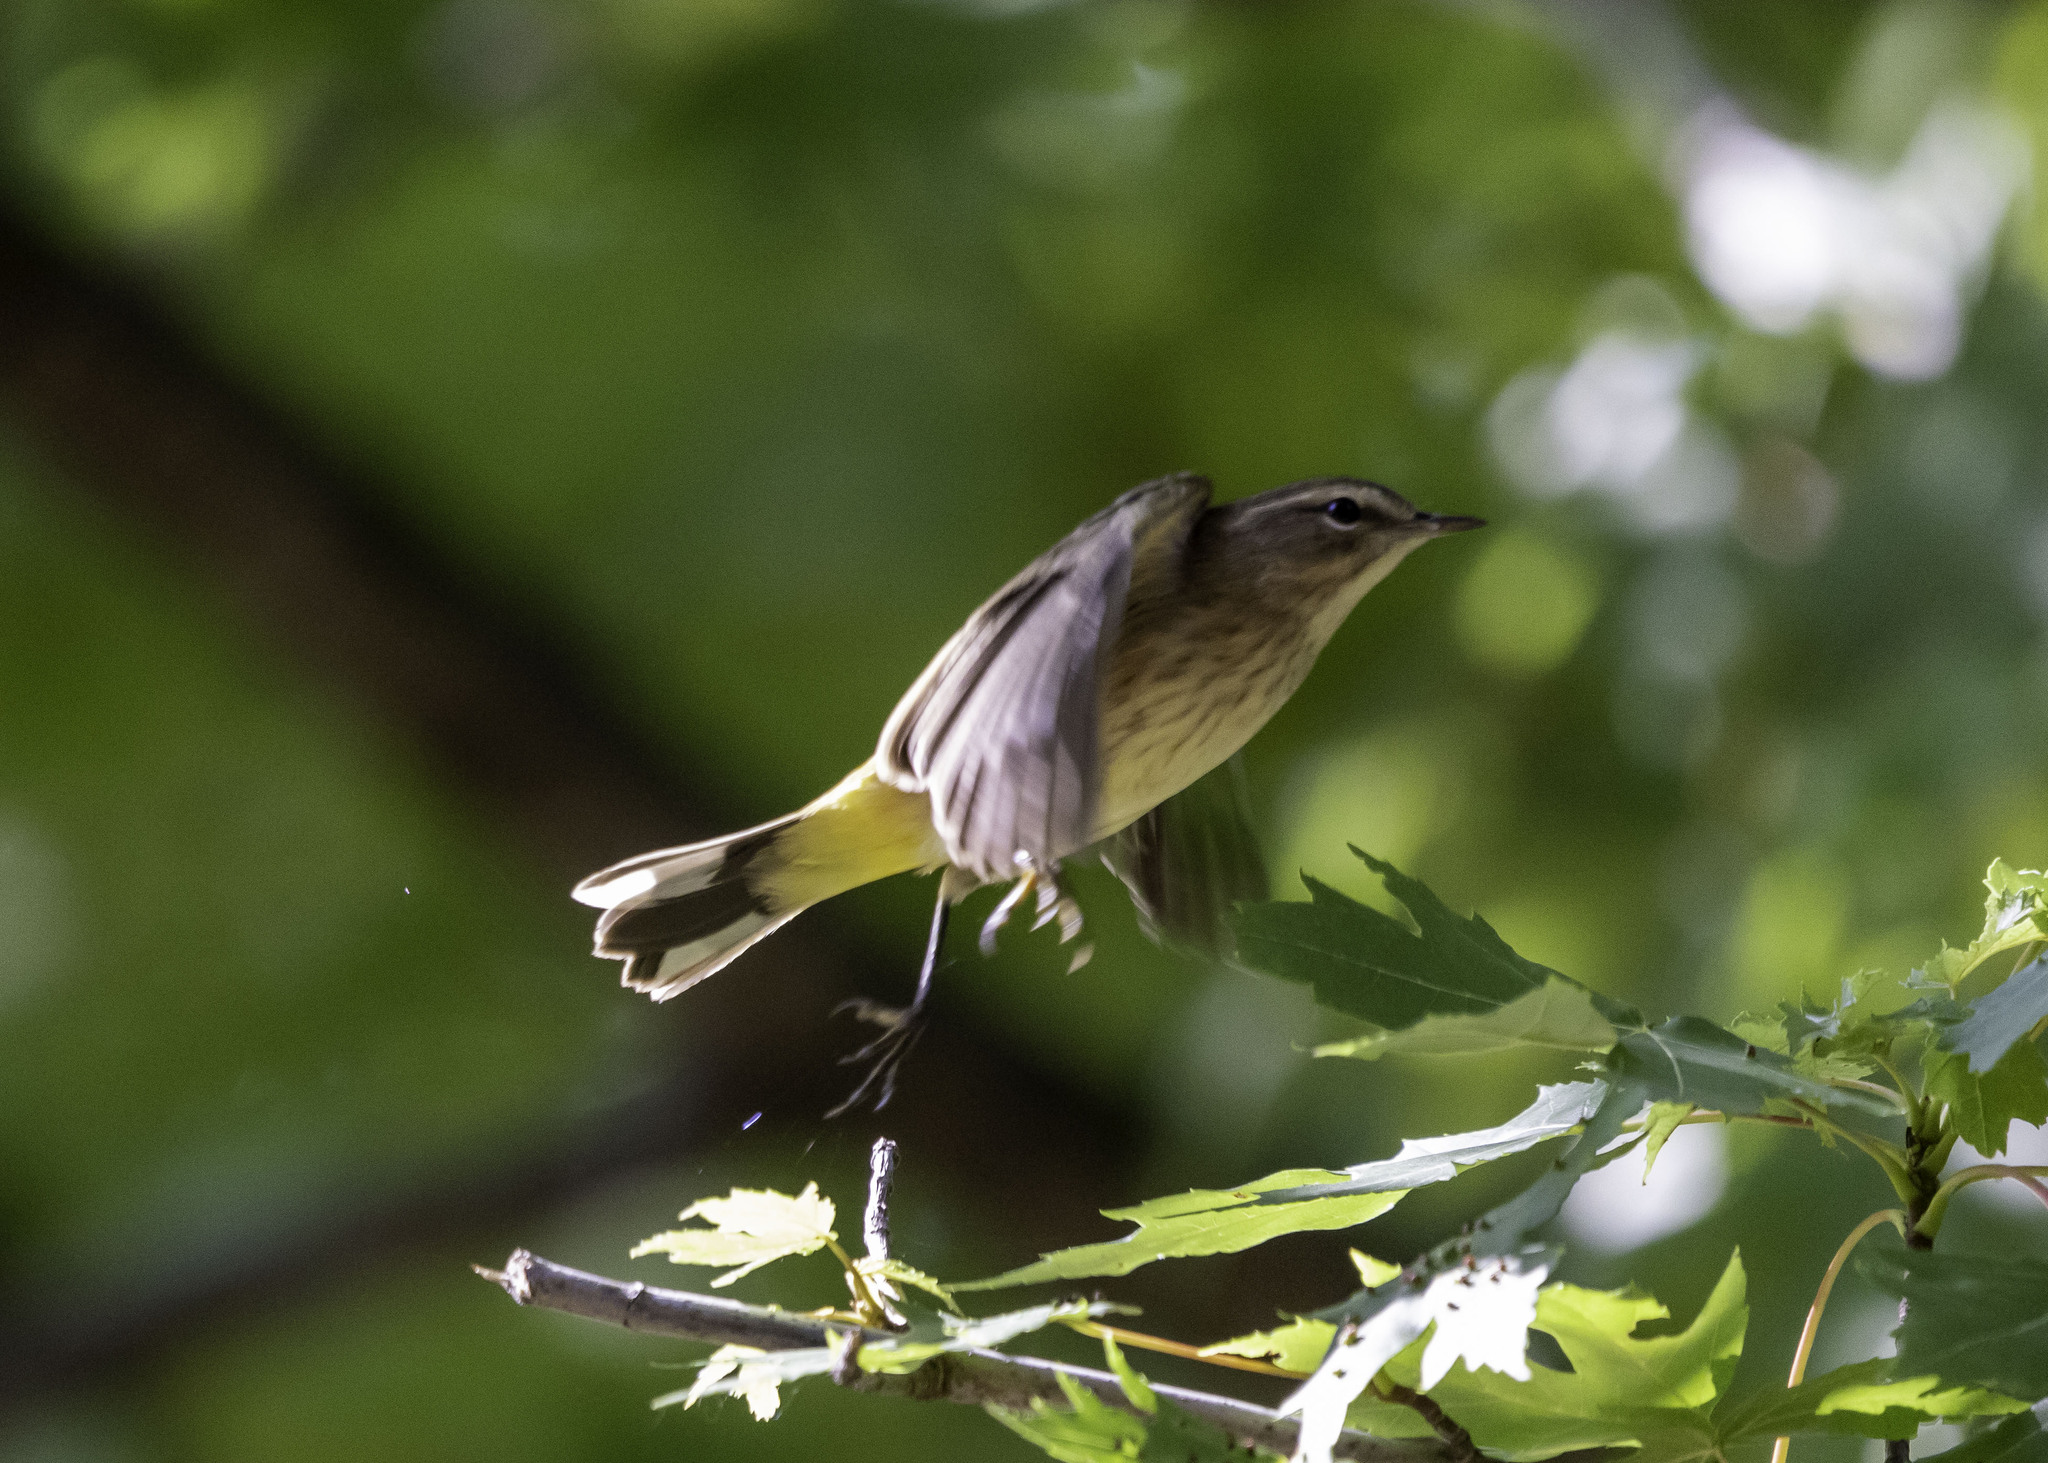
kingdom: Animalia
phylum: Chordata
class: Aves
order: Passeriformes
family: Parulidae
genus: Setophaga
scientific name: Setophaga palmarum
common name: Palm warbler
